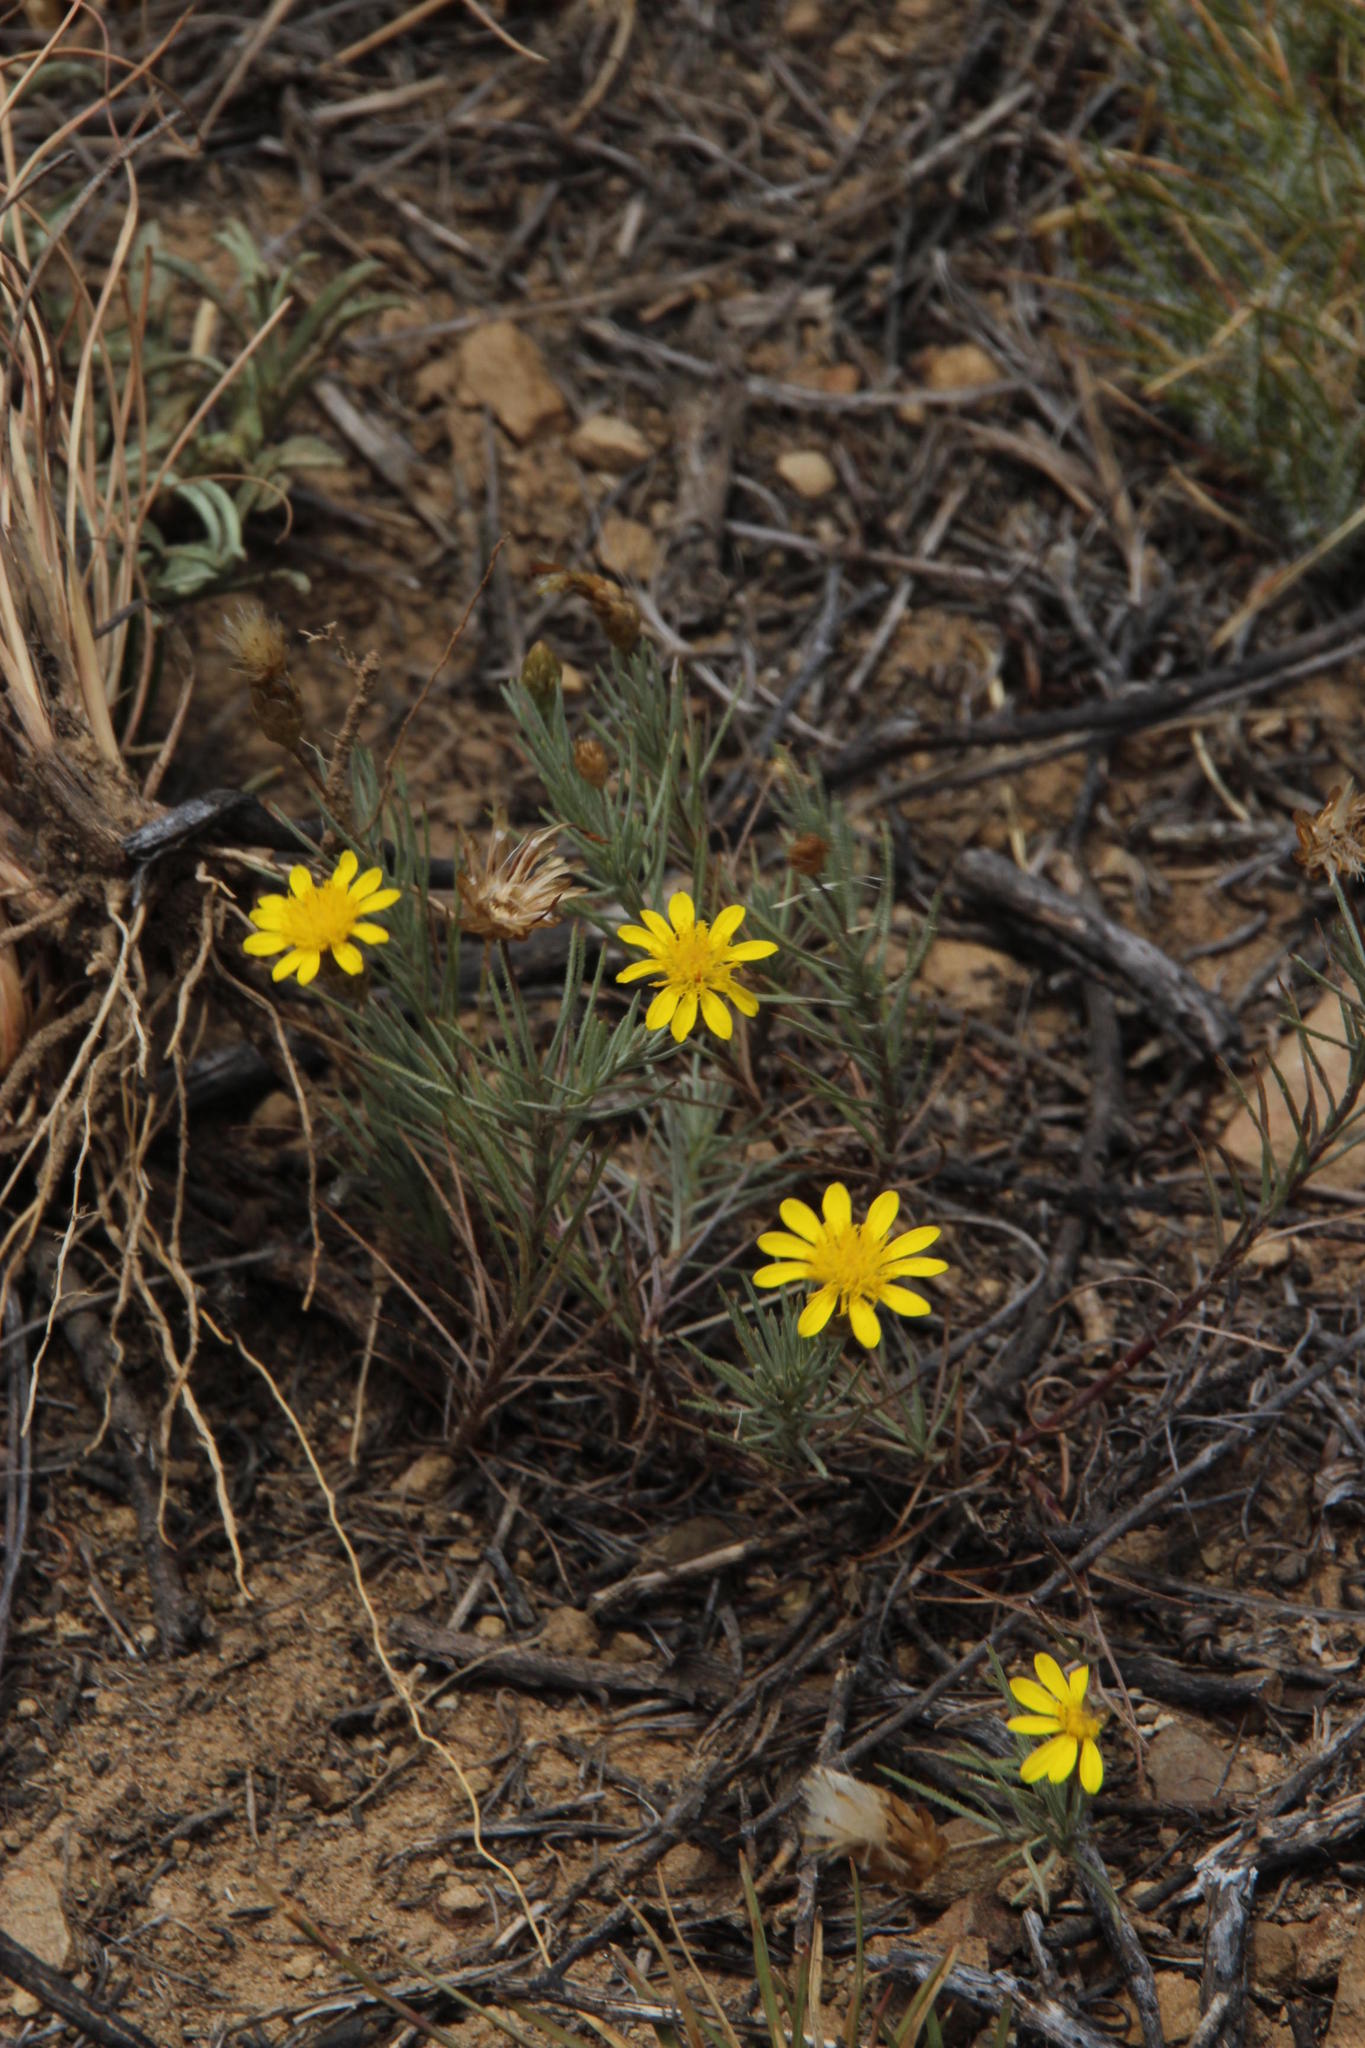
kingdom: Plantae
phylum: Tracheophyta
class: Magnoliopsida
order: Asterales
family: Asteraceae
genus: Leysera
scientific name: Leysera gnaphalodes
